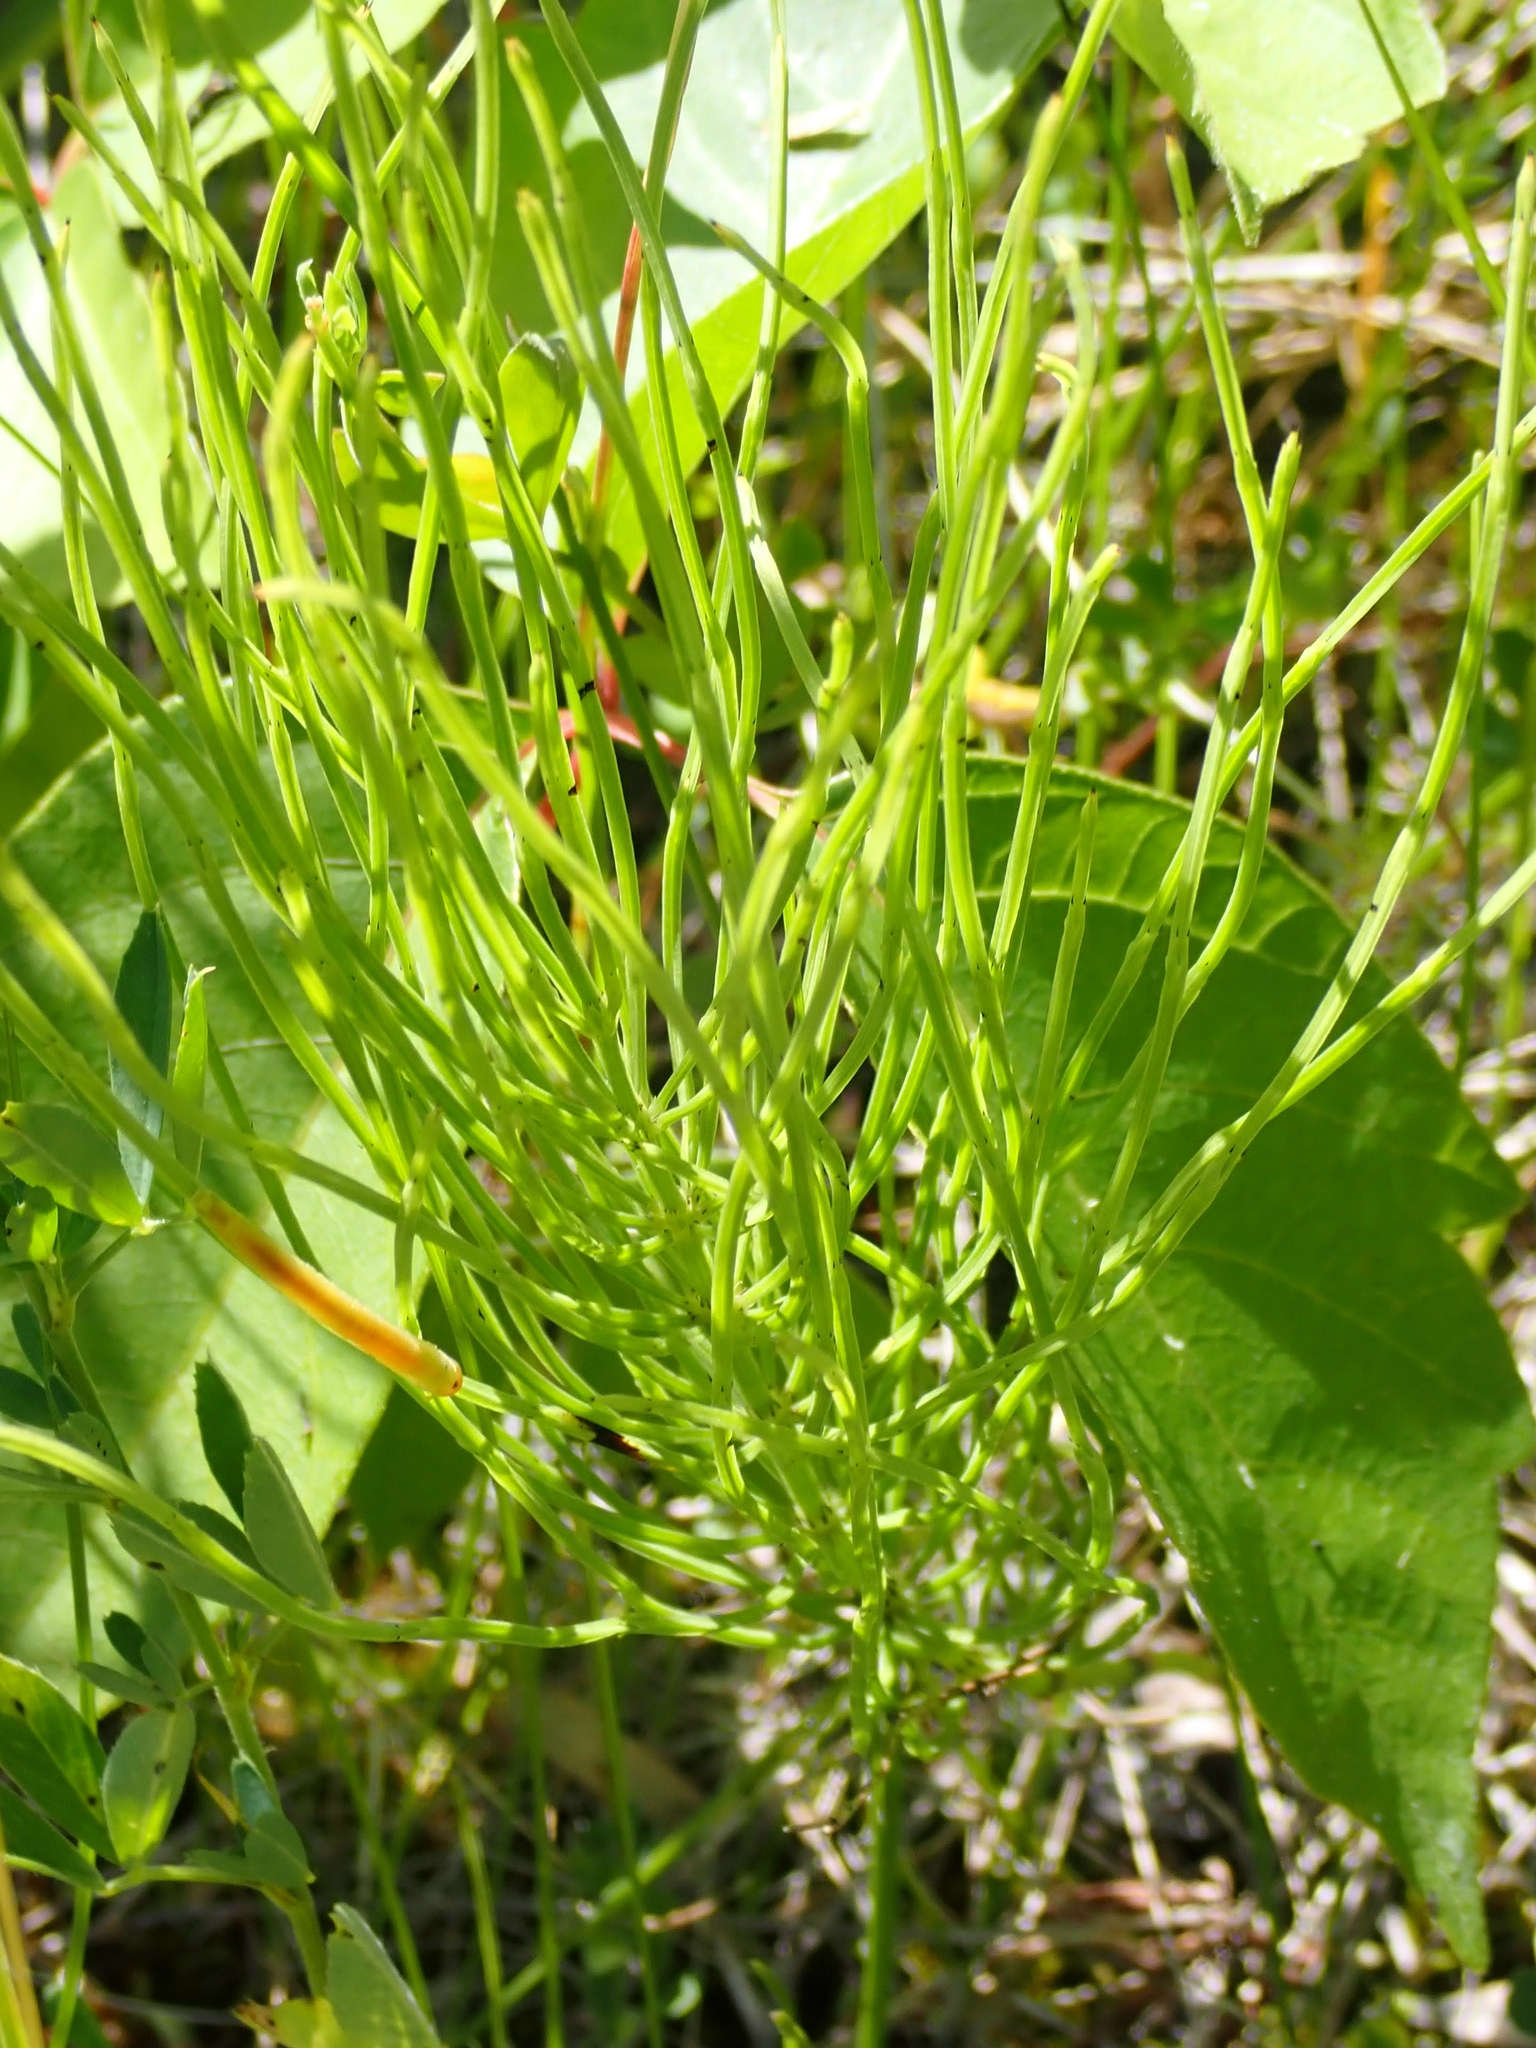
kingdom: Plantae
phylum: Tracheophyta
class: Polypodiopsida
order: Equisetales
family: Equisetaceae
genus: Equisetum
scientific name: Equisetum arvense
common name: Field horsetail
